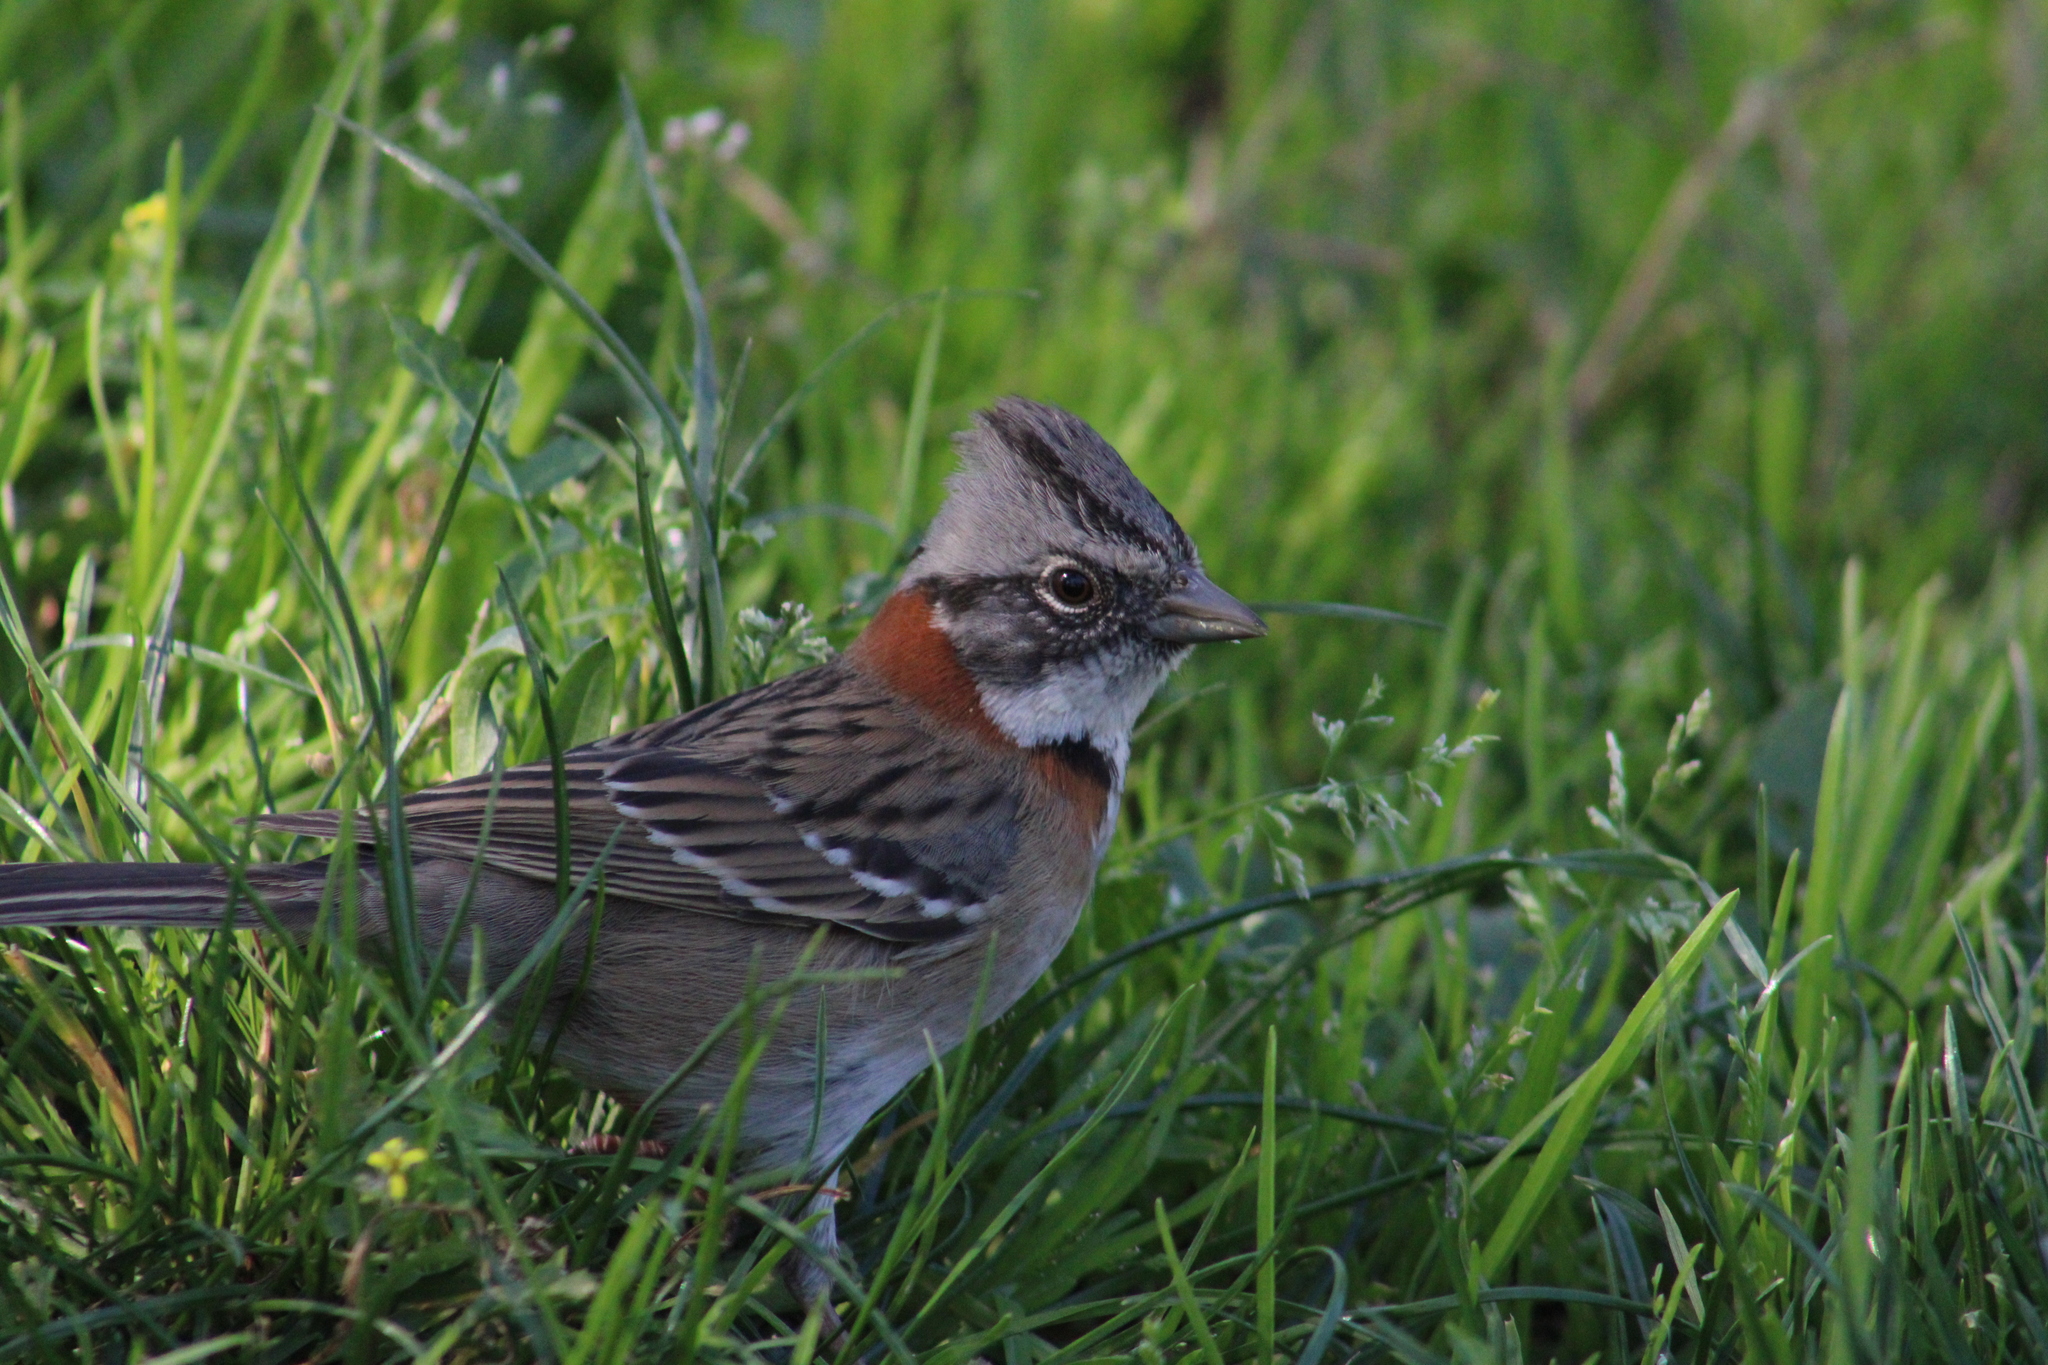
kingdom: Animalia
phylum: Chordata
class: Aves
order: Passeriformes
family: Passerellidae
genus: Zonotrichia
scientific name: Zonotrichia capensis
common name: Rufous-collared sparrow
